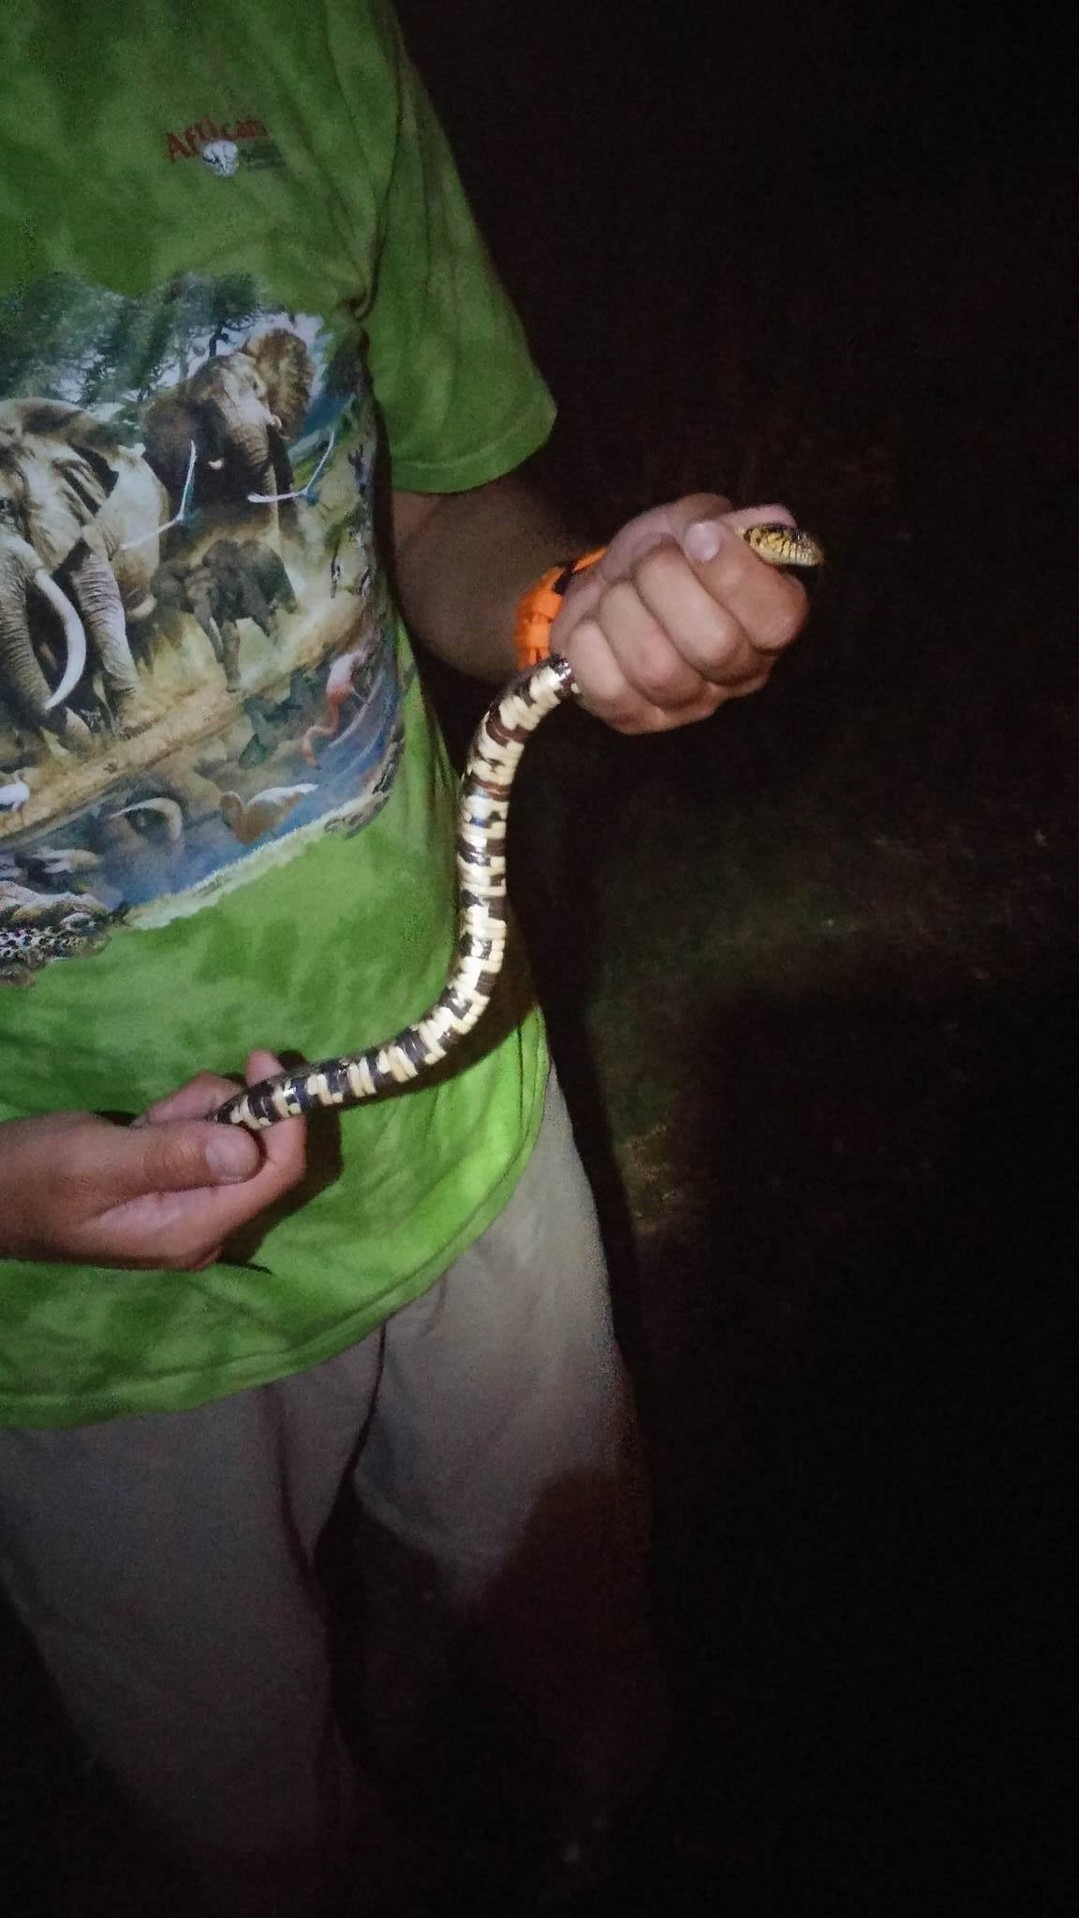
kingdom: Animalia
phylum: Chordata
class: Squamata
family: Colubridae
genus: Nerodia
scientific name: Nerodia fasciata
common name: Southern water snake
